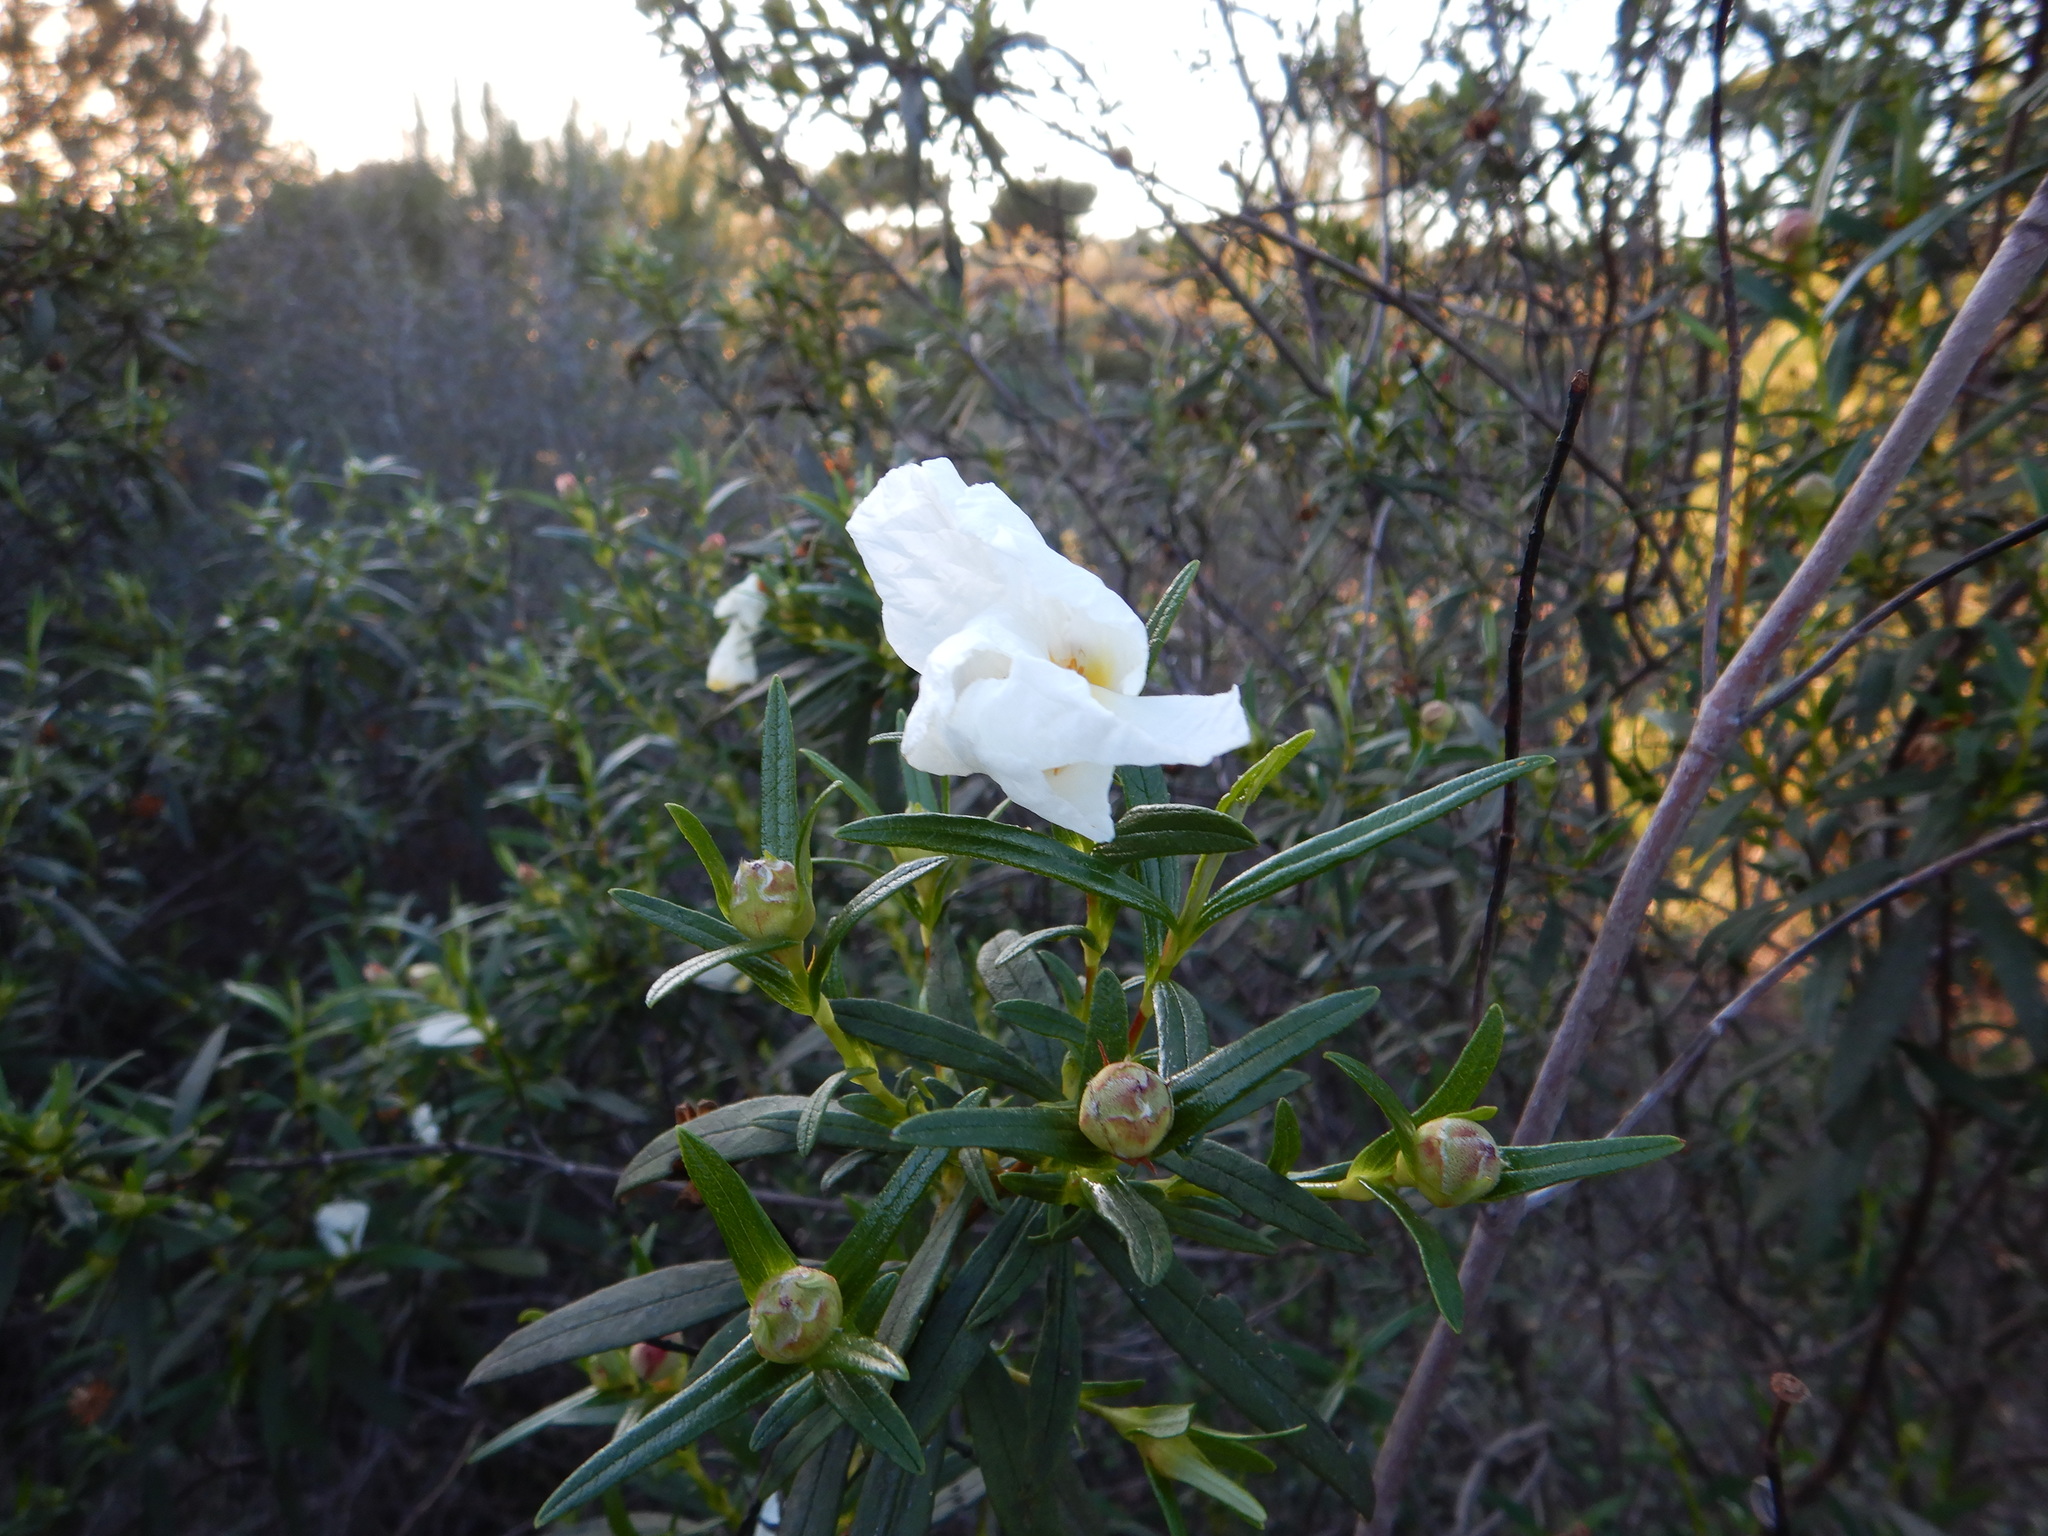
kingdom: Plantae
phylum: Tracheophyta
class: Magnoliopsida
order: Malvales
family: Cistaceae
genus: Cistus
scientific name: Cistus ladanifer
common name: Common gum cistus
